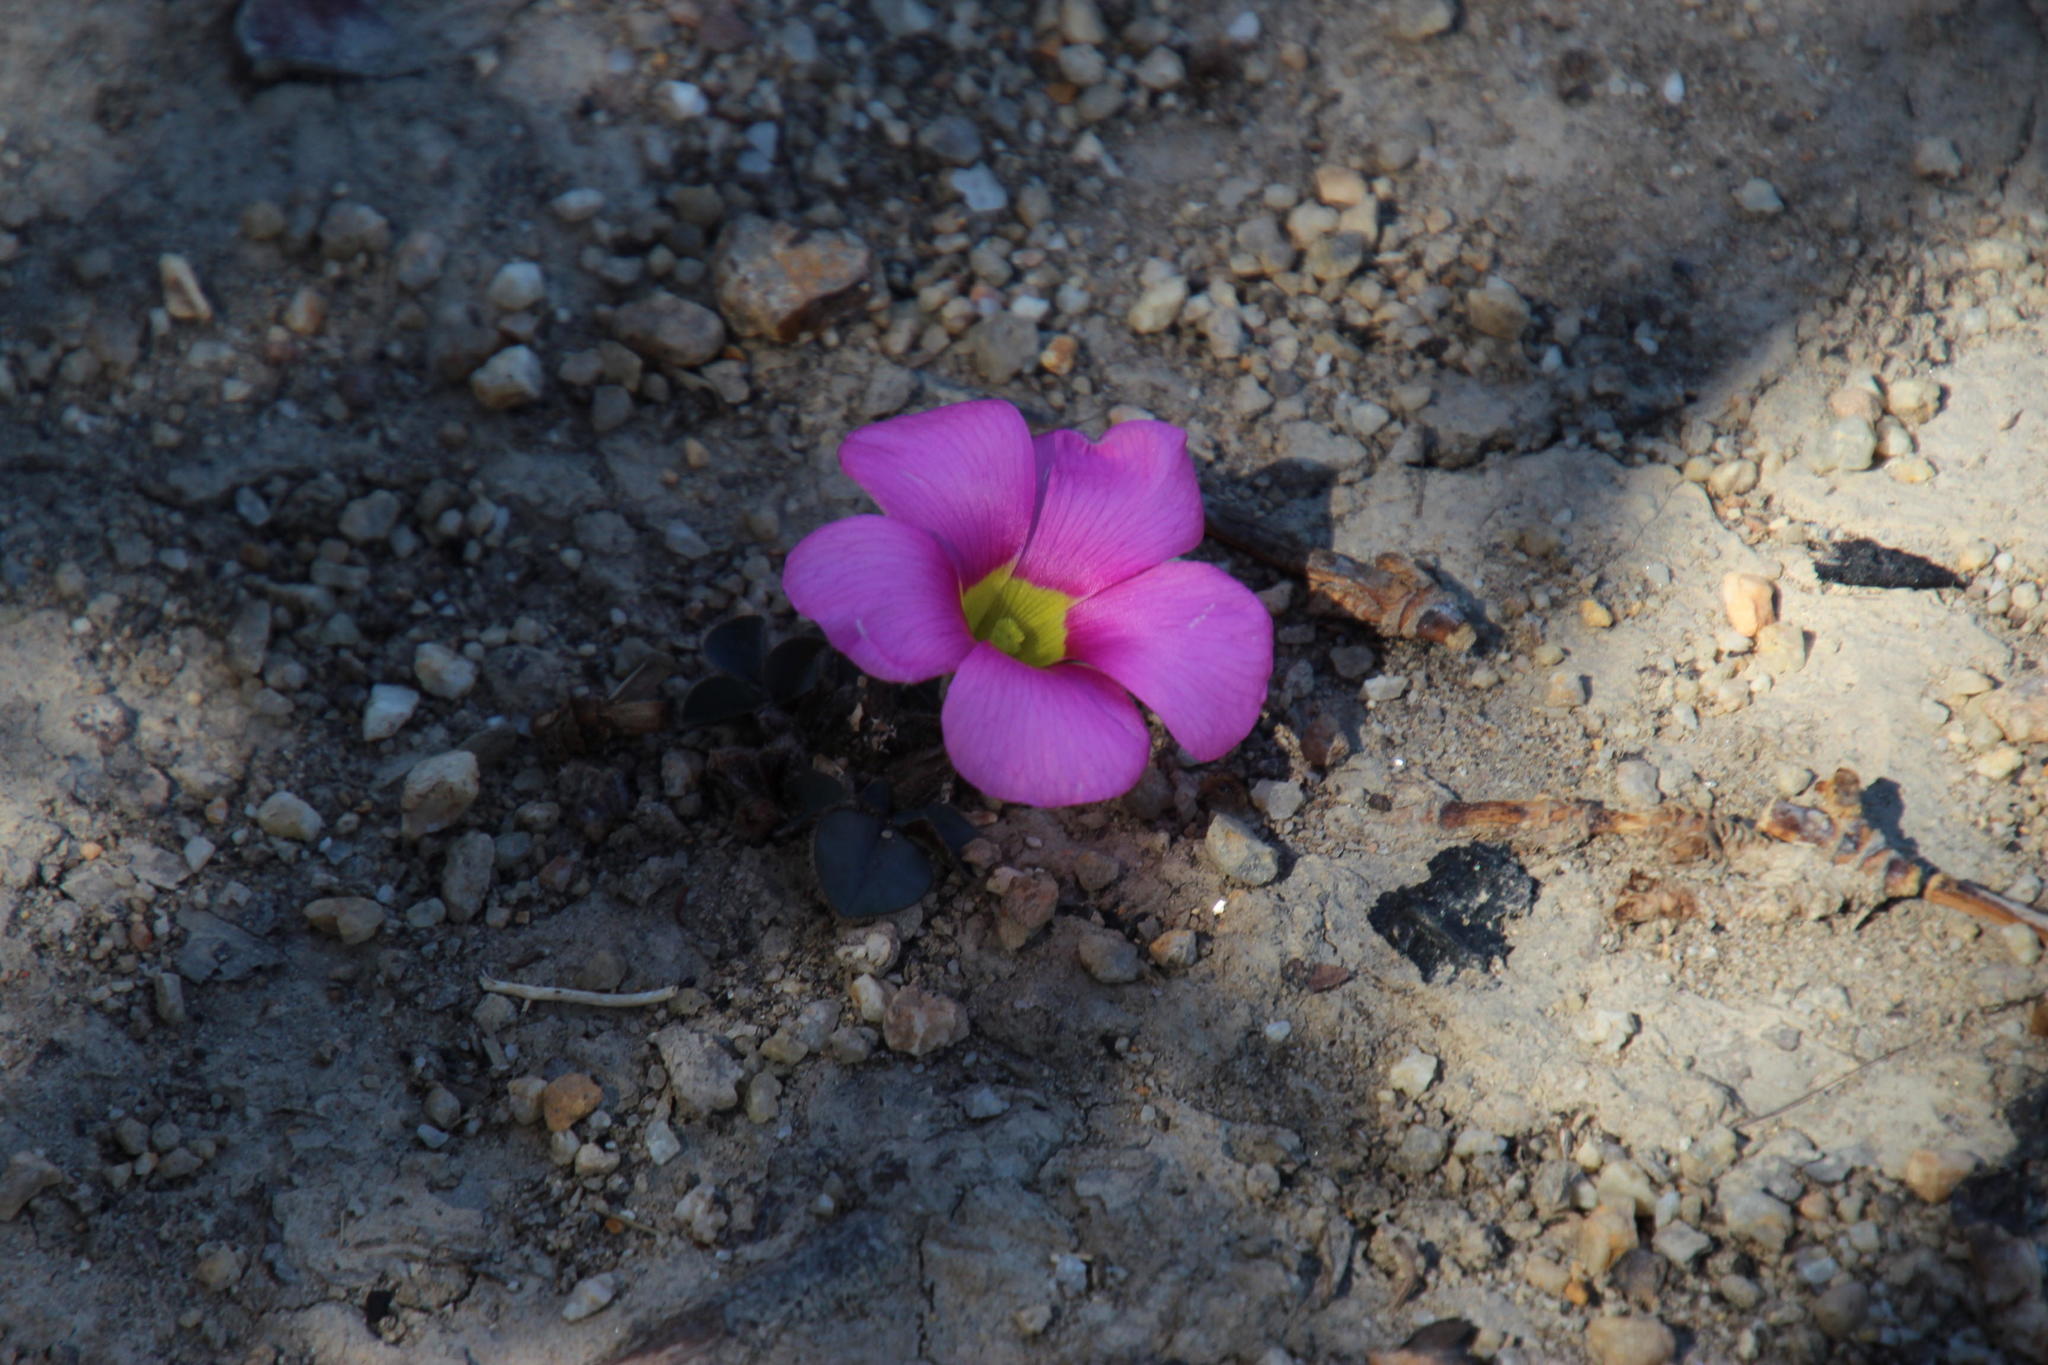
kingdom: Plantae
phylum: Tracheophyta
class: Magnoliopsida
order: Oxalidales
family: Oxalidaceae
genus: Oxalis
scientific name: Oxalis purpurea
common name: Purple woodsorrel
